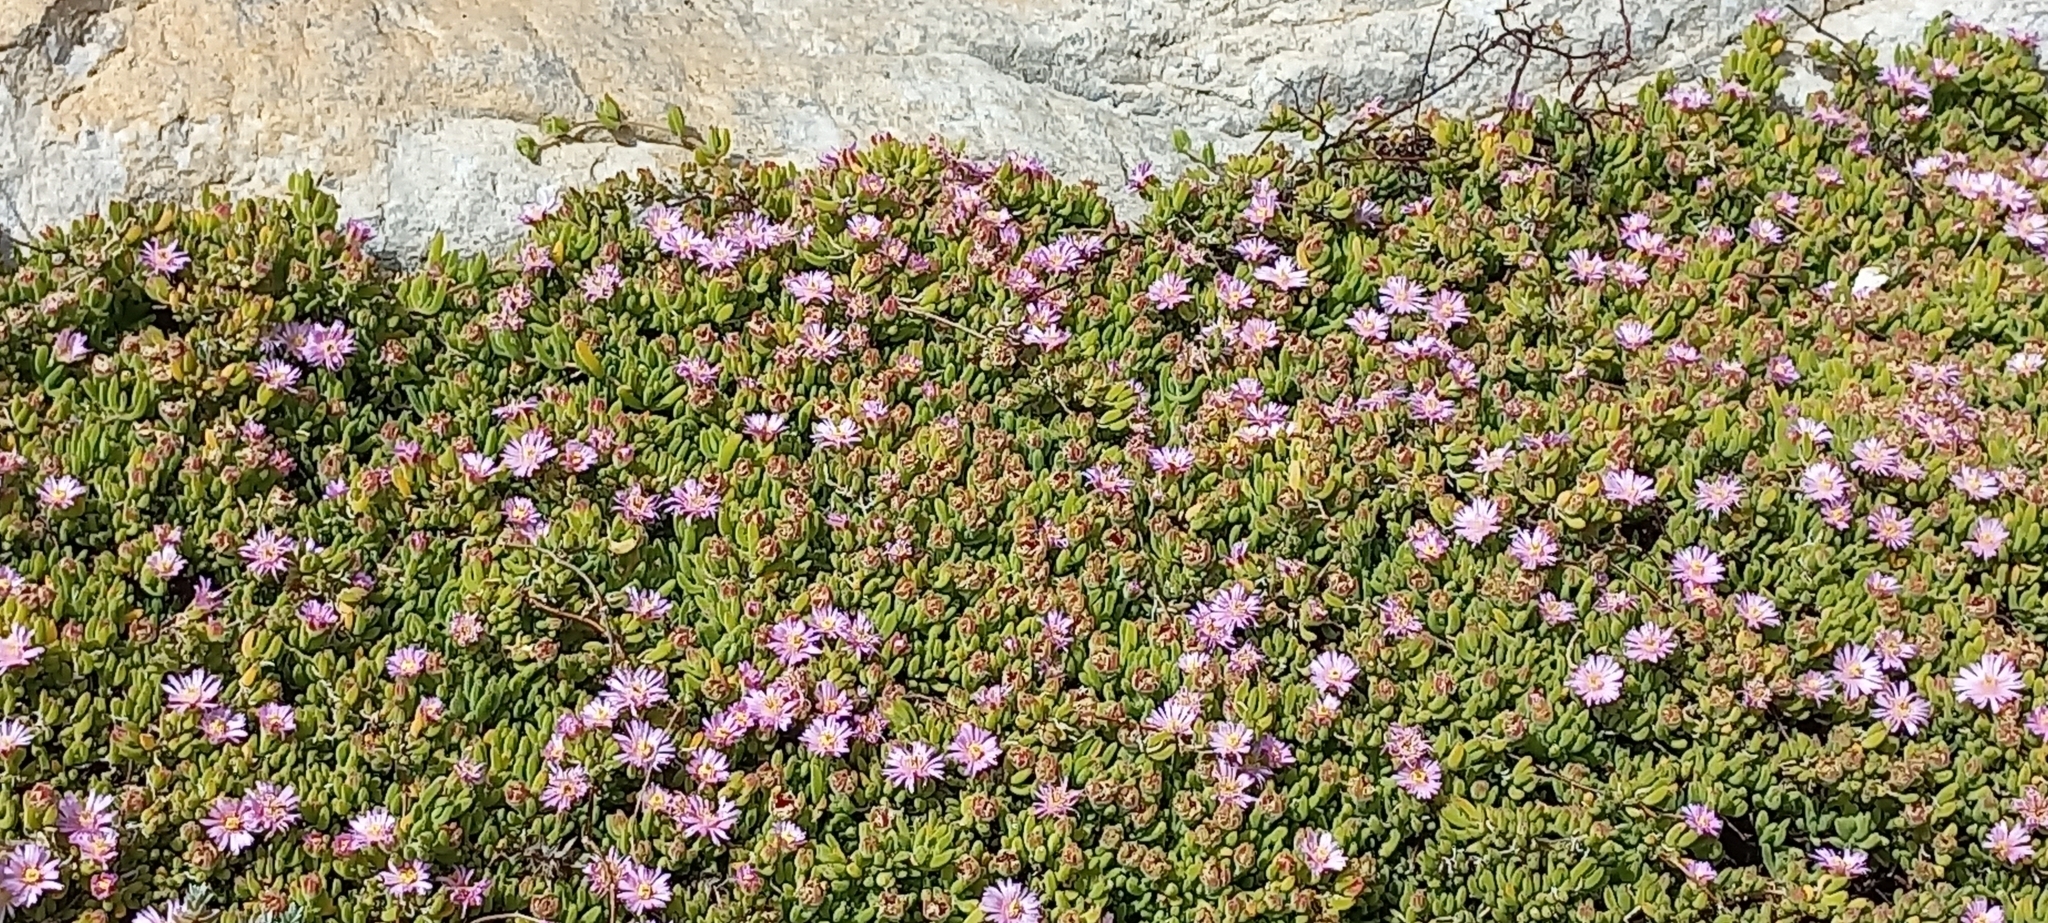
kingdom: Plantae
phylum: Tracheophyta
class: Magnoliopsida
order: Caryophyllales
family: Aizoaceae
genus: Drosanthemum
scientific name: Drosanthemum candens
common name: Rodondo-creeper
